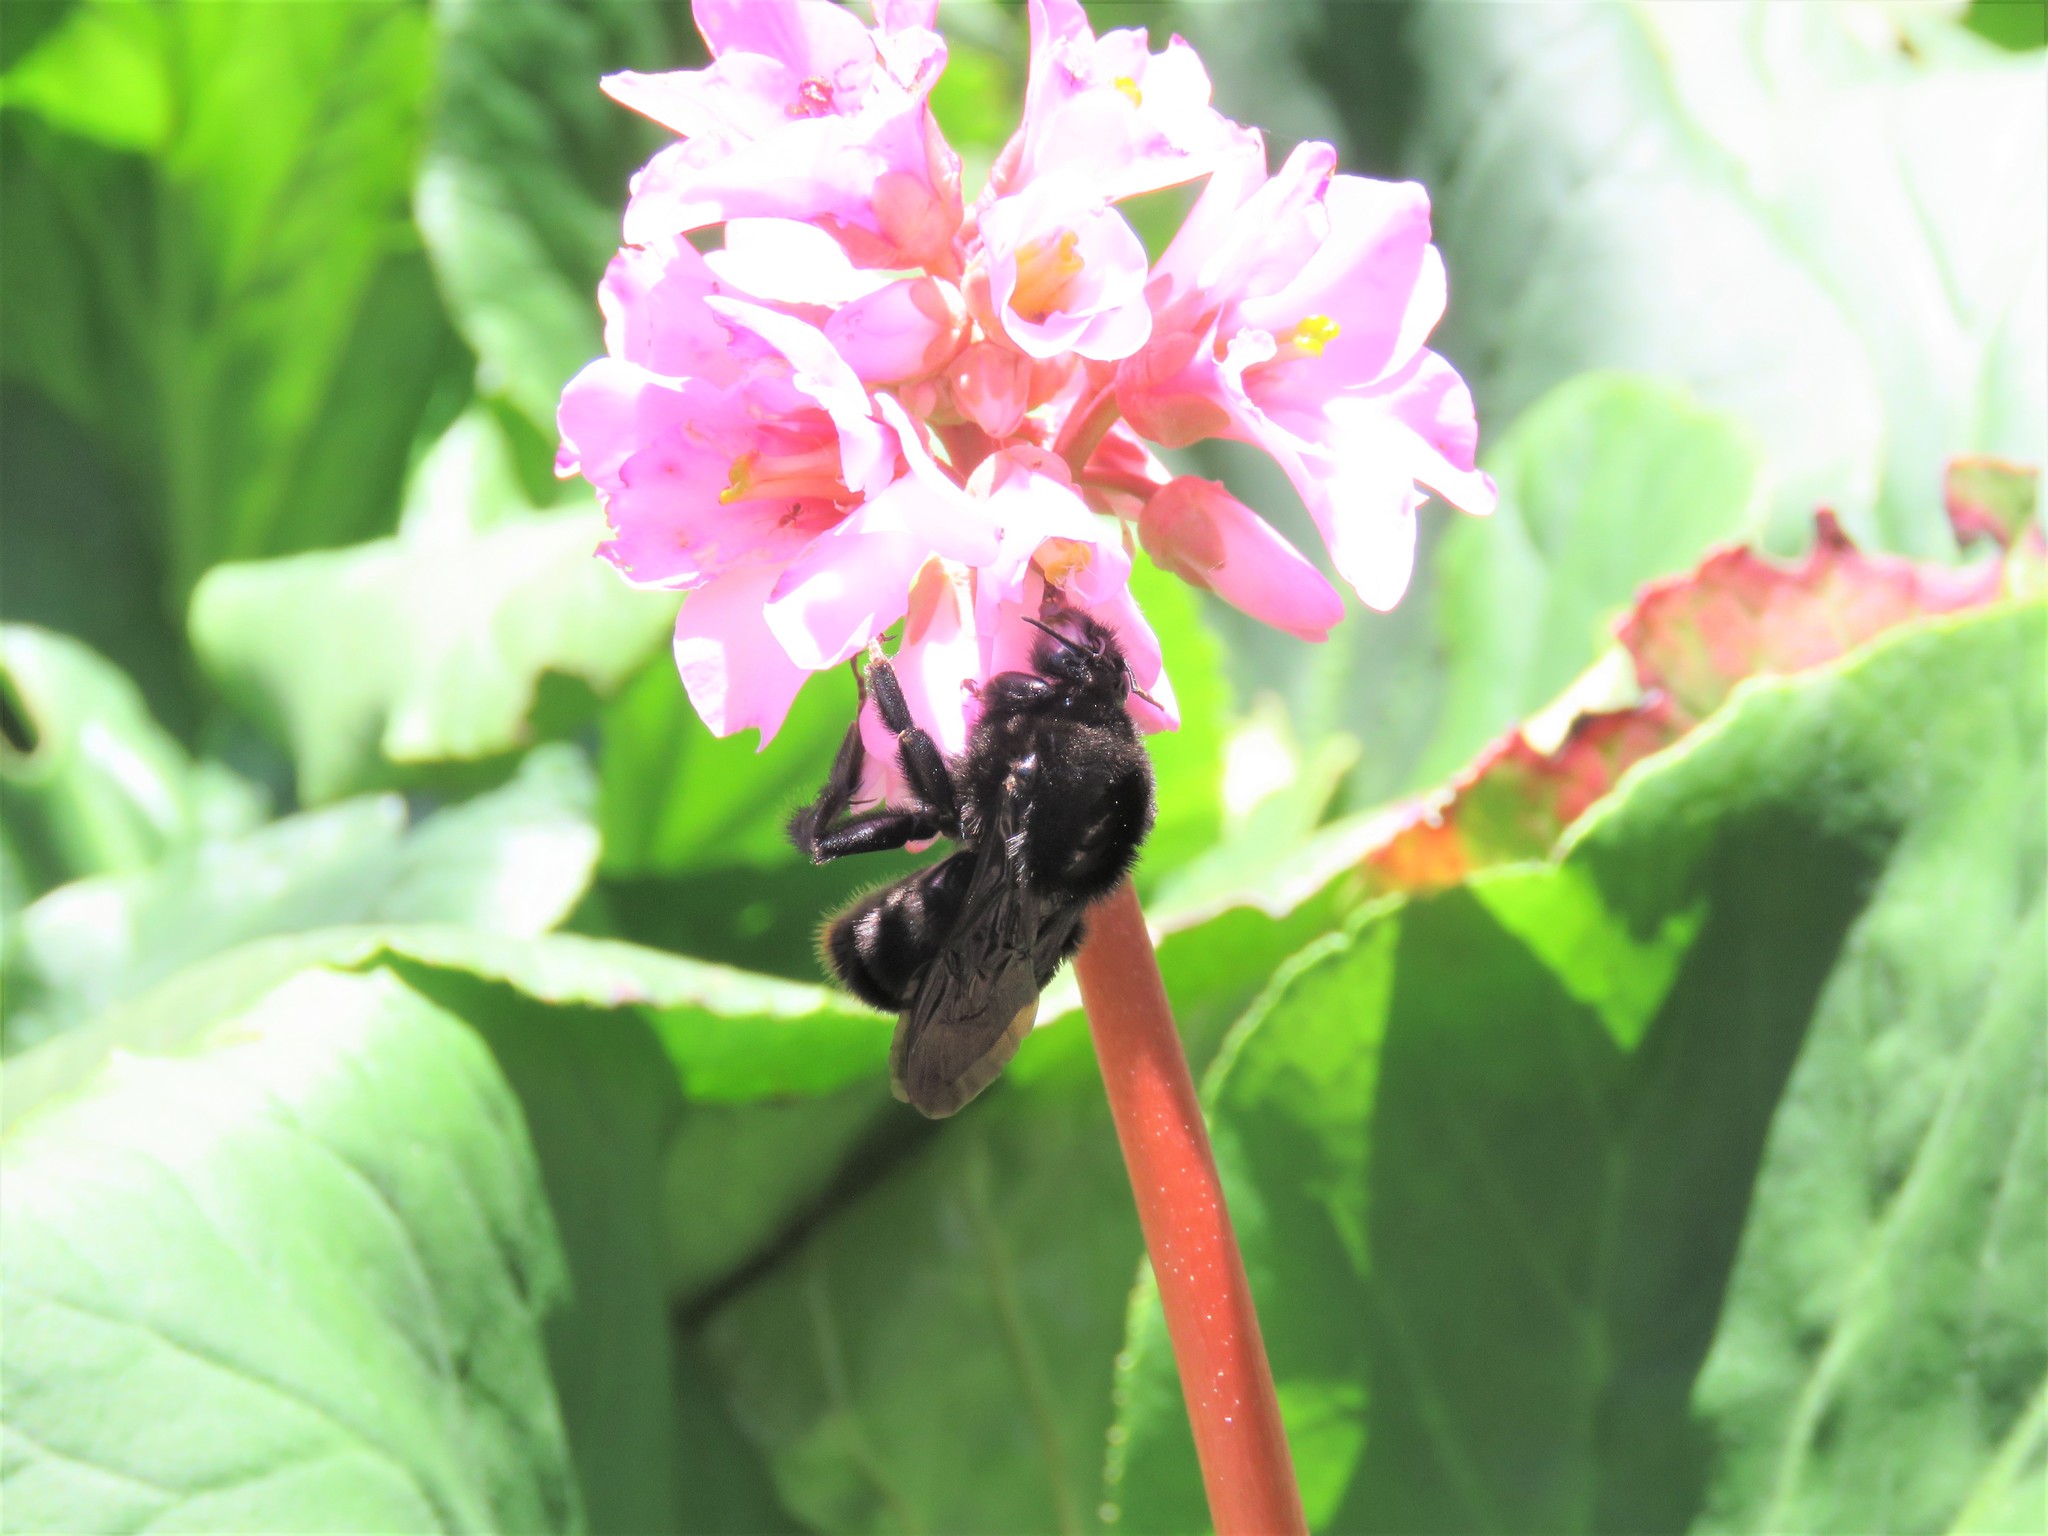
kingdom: Animalia
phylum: Arthropoda
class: Insecta
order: Hymenoptera
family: Apidae
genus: Thygater
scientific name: Thygater aethiops
